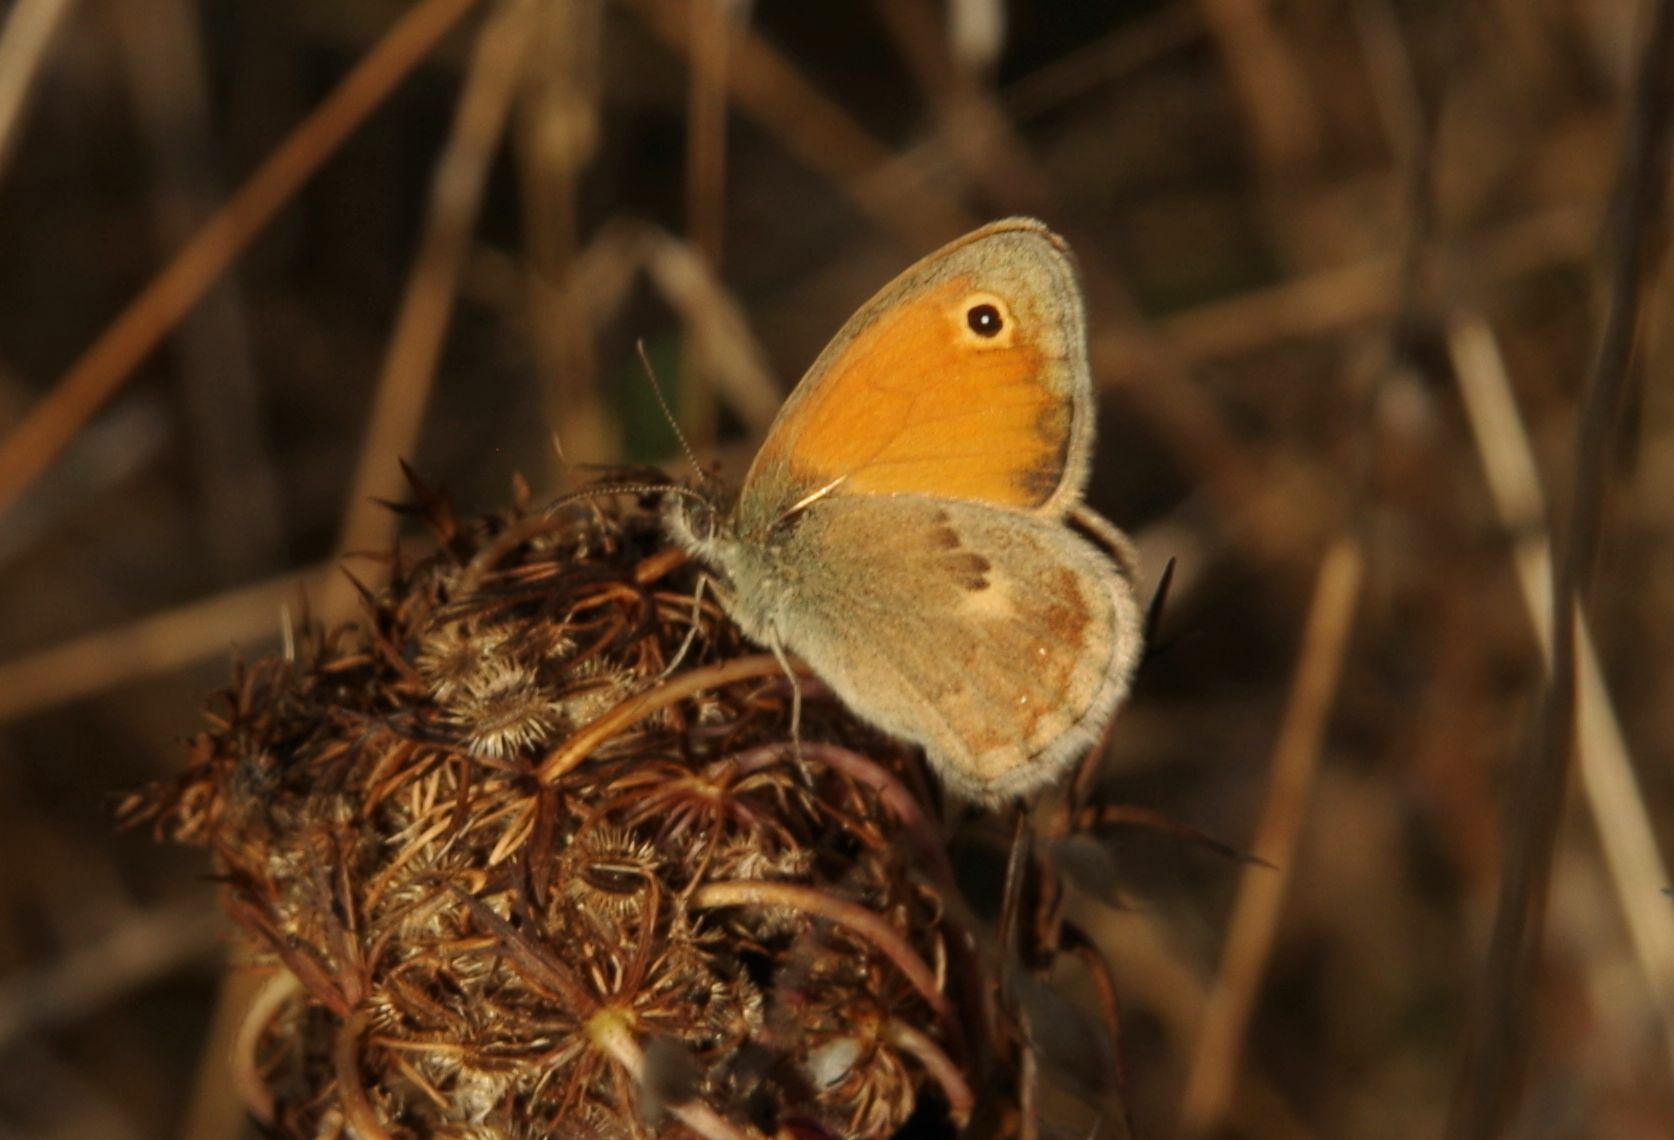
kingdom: Animalia
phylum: Arthropoda
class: Insecta
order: Lepidoptera
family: Nymphalidae
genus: Coenonympha
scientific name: Coenonympha pamphilus
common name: Small heath
